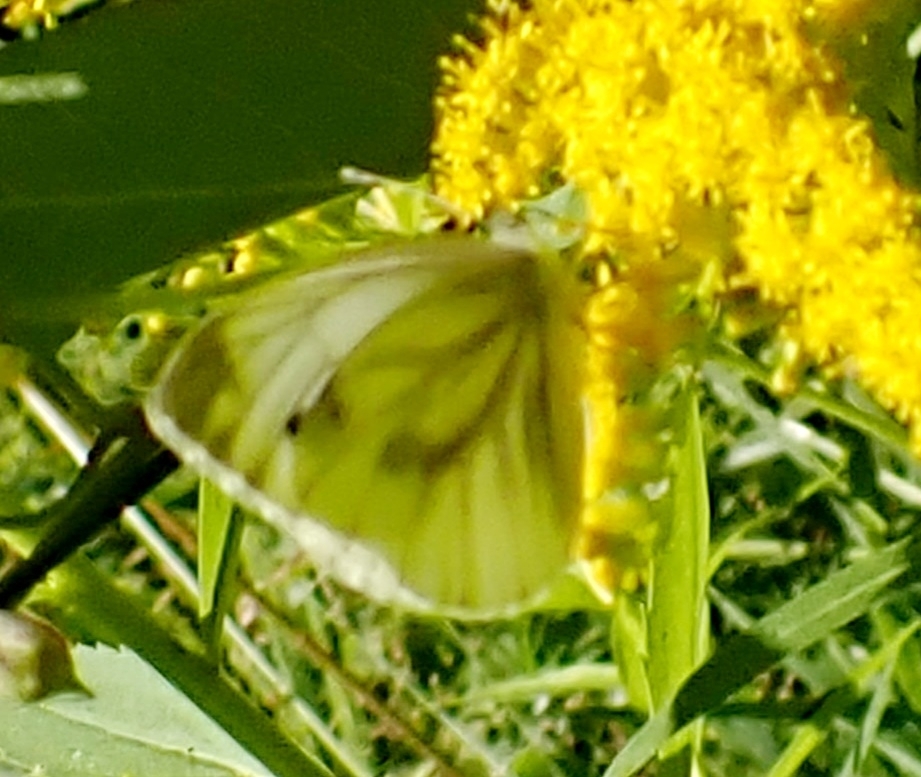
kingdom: Animalia
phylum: Arthropoda
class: Insecta
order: Lepidoptera
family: Pieridae
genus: Pieris
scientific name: Pieris napi
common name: Green-veined white
